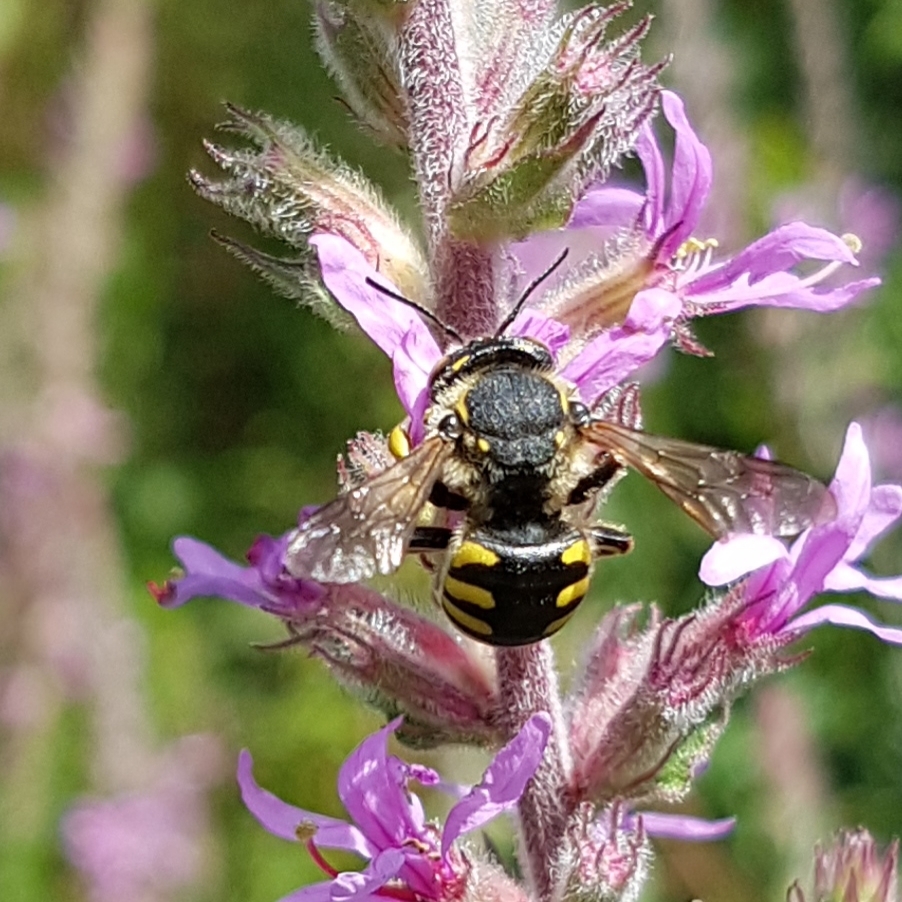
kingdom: Animalia
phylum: Arthropoda
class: Insecta
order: Hymenoptera
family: Megachilidae
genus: Anthidium
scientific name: Anthidium florentinum
